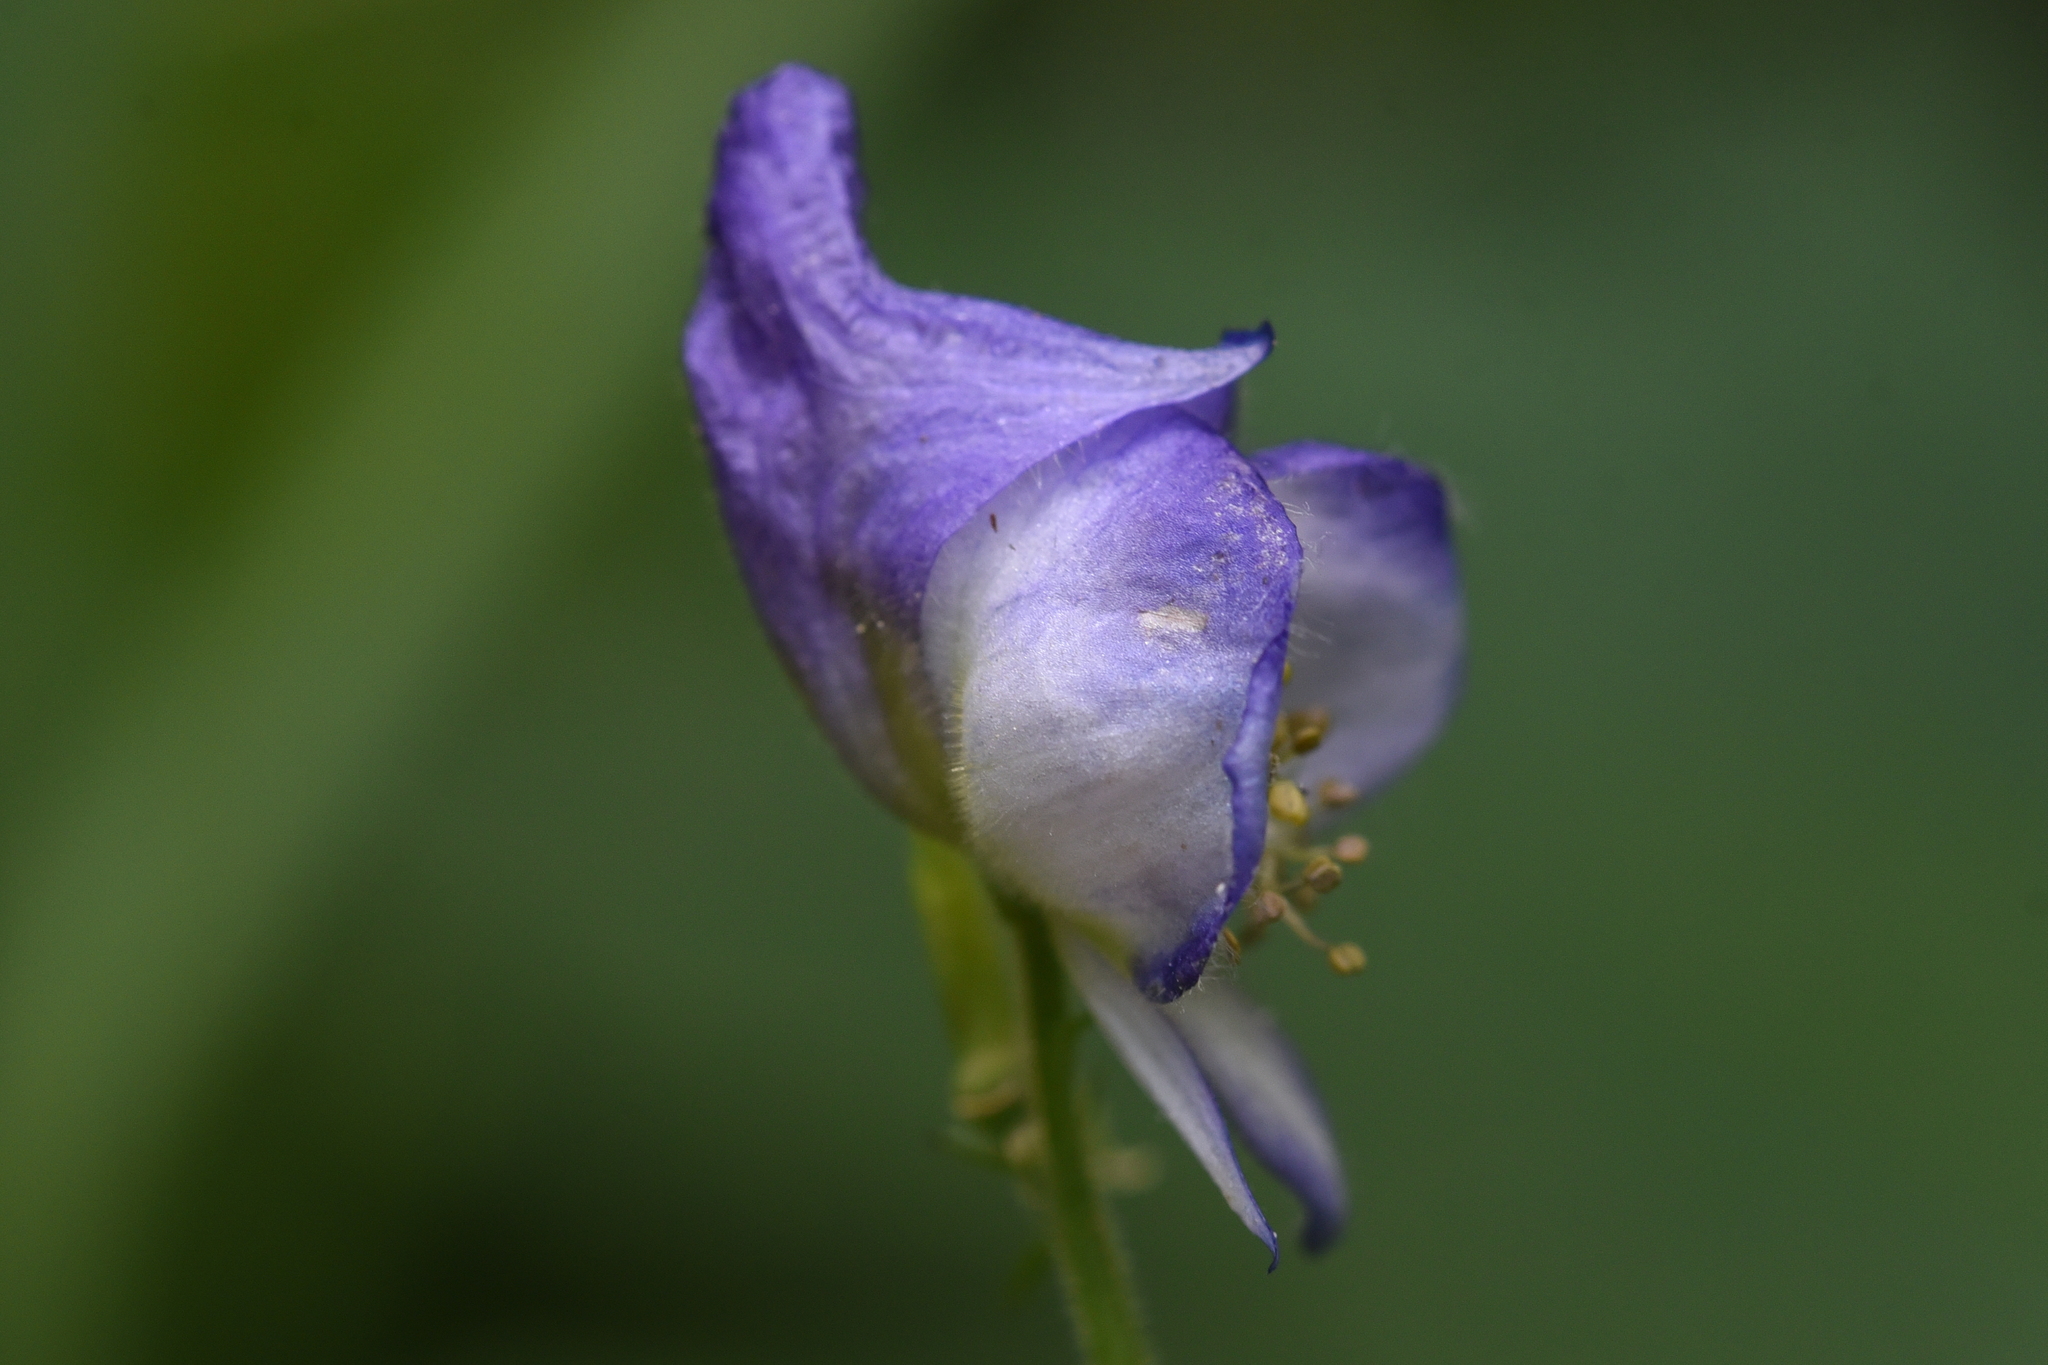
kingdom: Plantae
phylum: Tracheophyta
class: Magnoliopsida
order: Ranunculales
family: Ranunculaceae
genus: Aconitum
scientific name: Aconitum columbianum
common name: Columbia aconite
